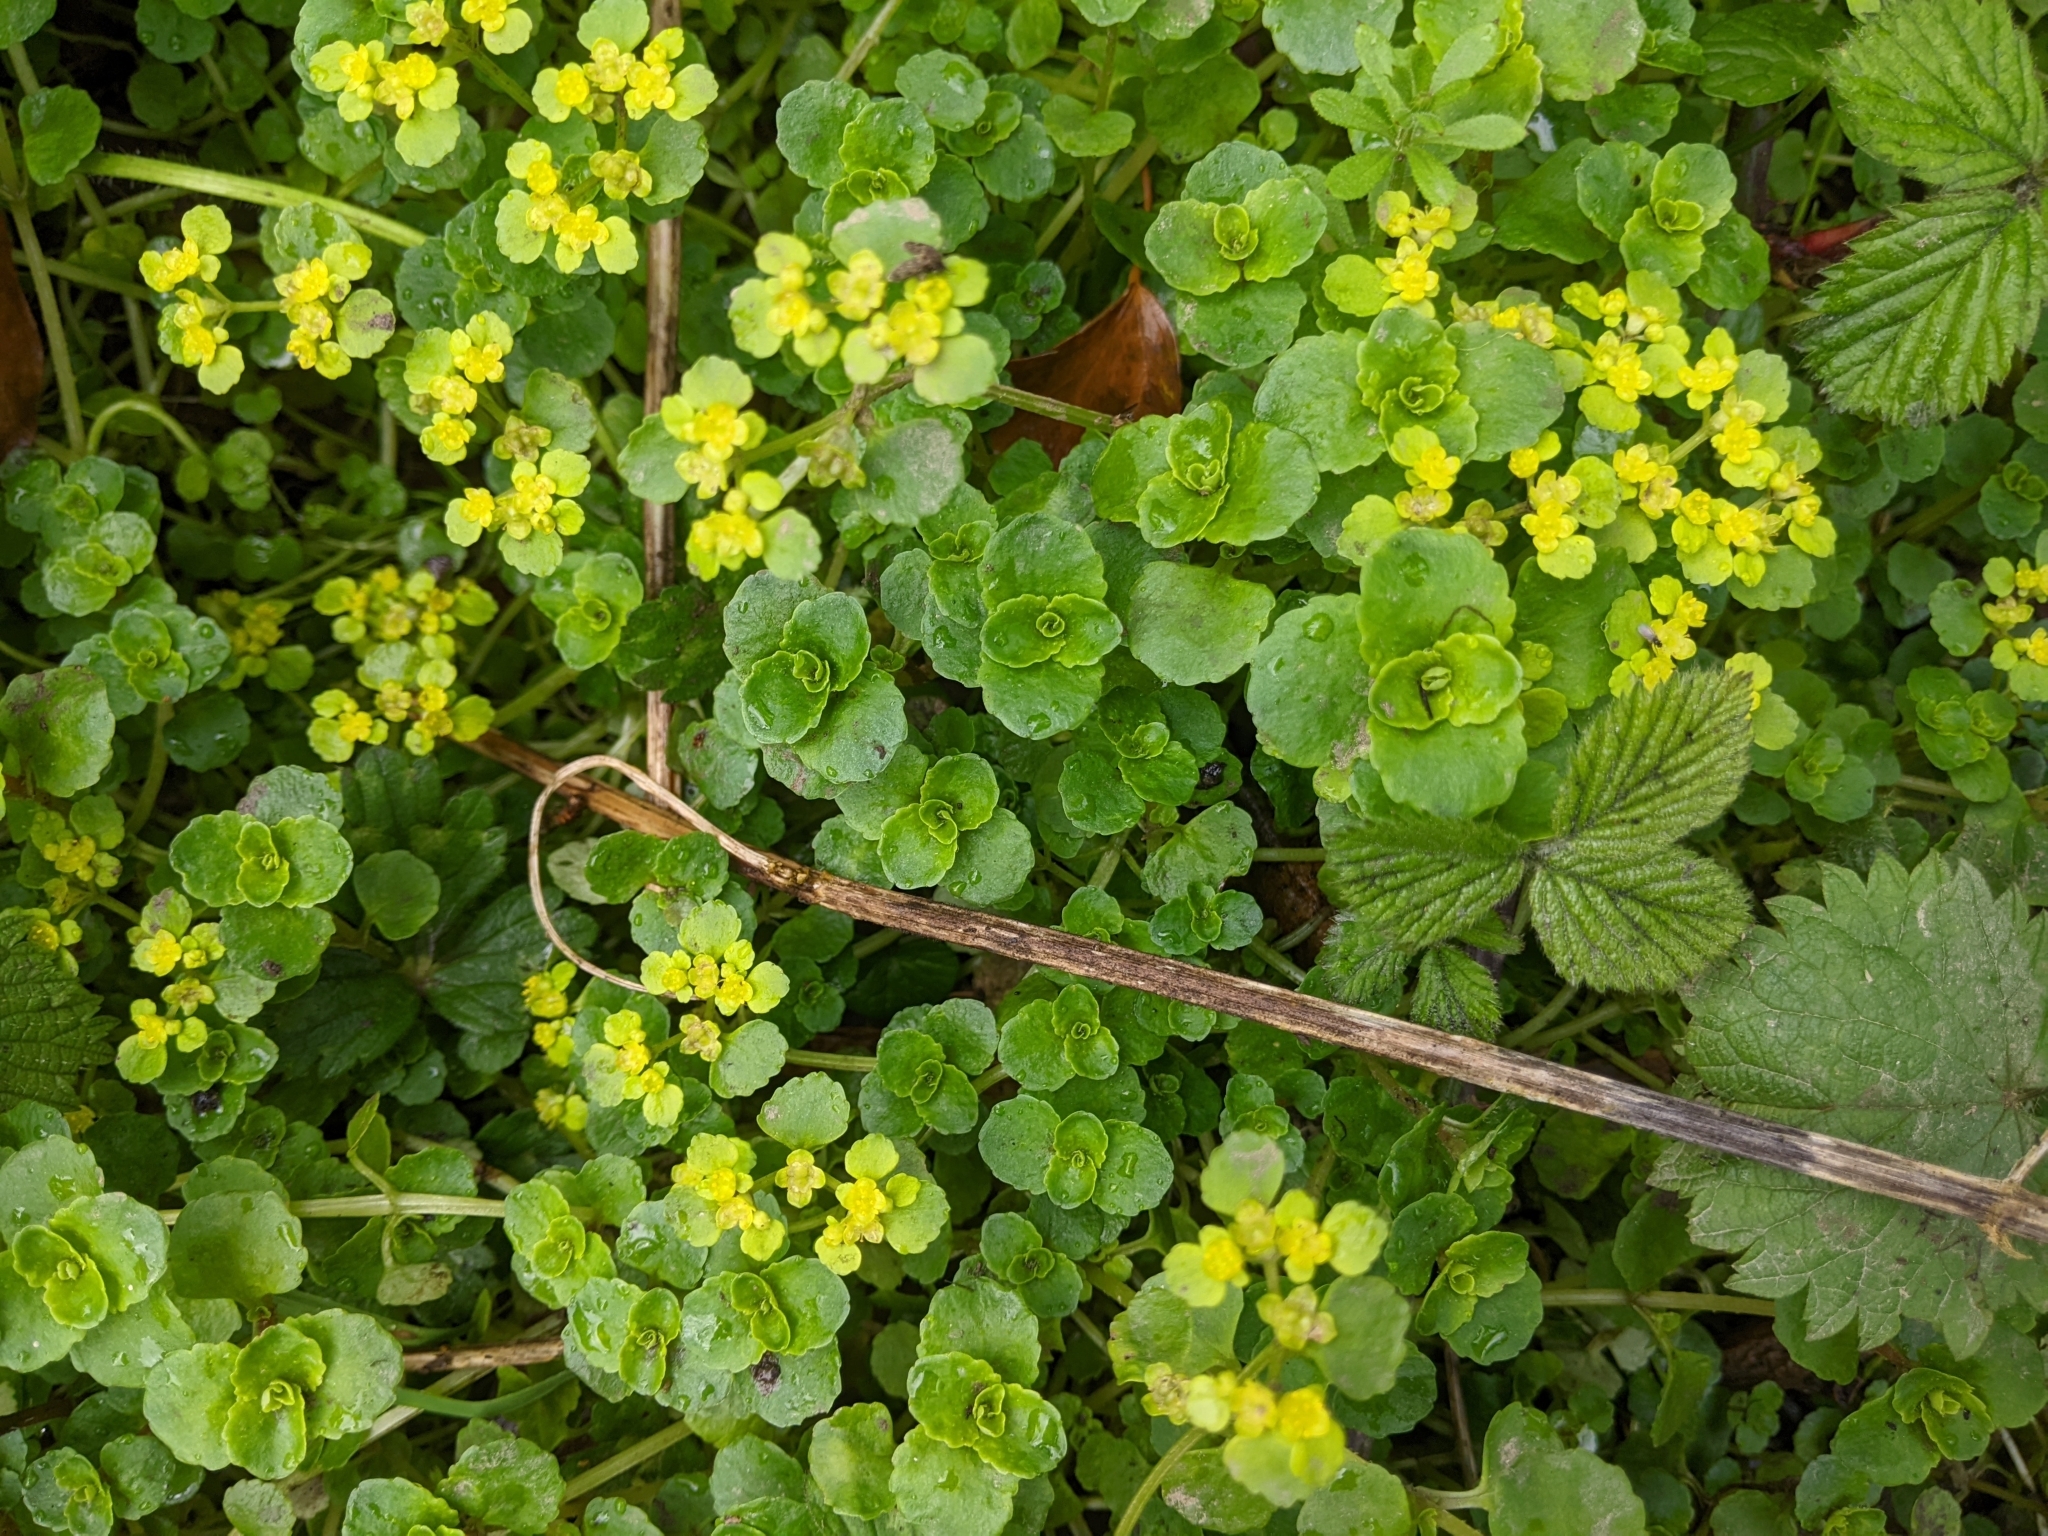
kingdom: Plantae
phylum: Tracheophyta
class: Magnoliopsida
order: Saxifragales
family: Saxifragaceae
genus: Chrysosplenium
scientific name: Chrysosplenium oppositifolium
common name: Opposite-leaved golden-saxifrage
